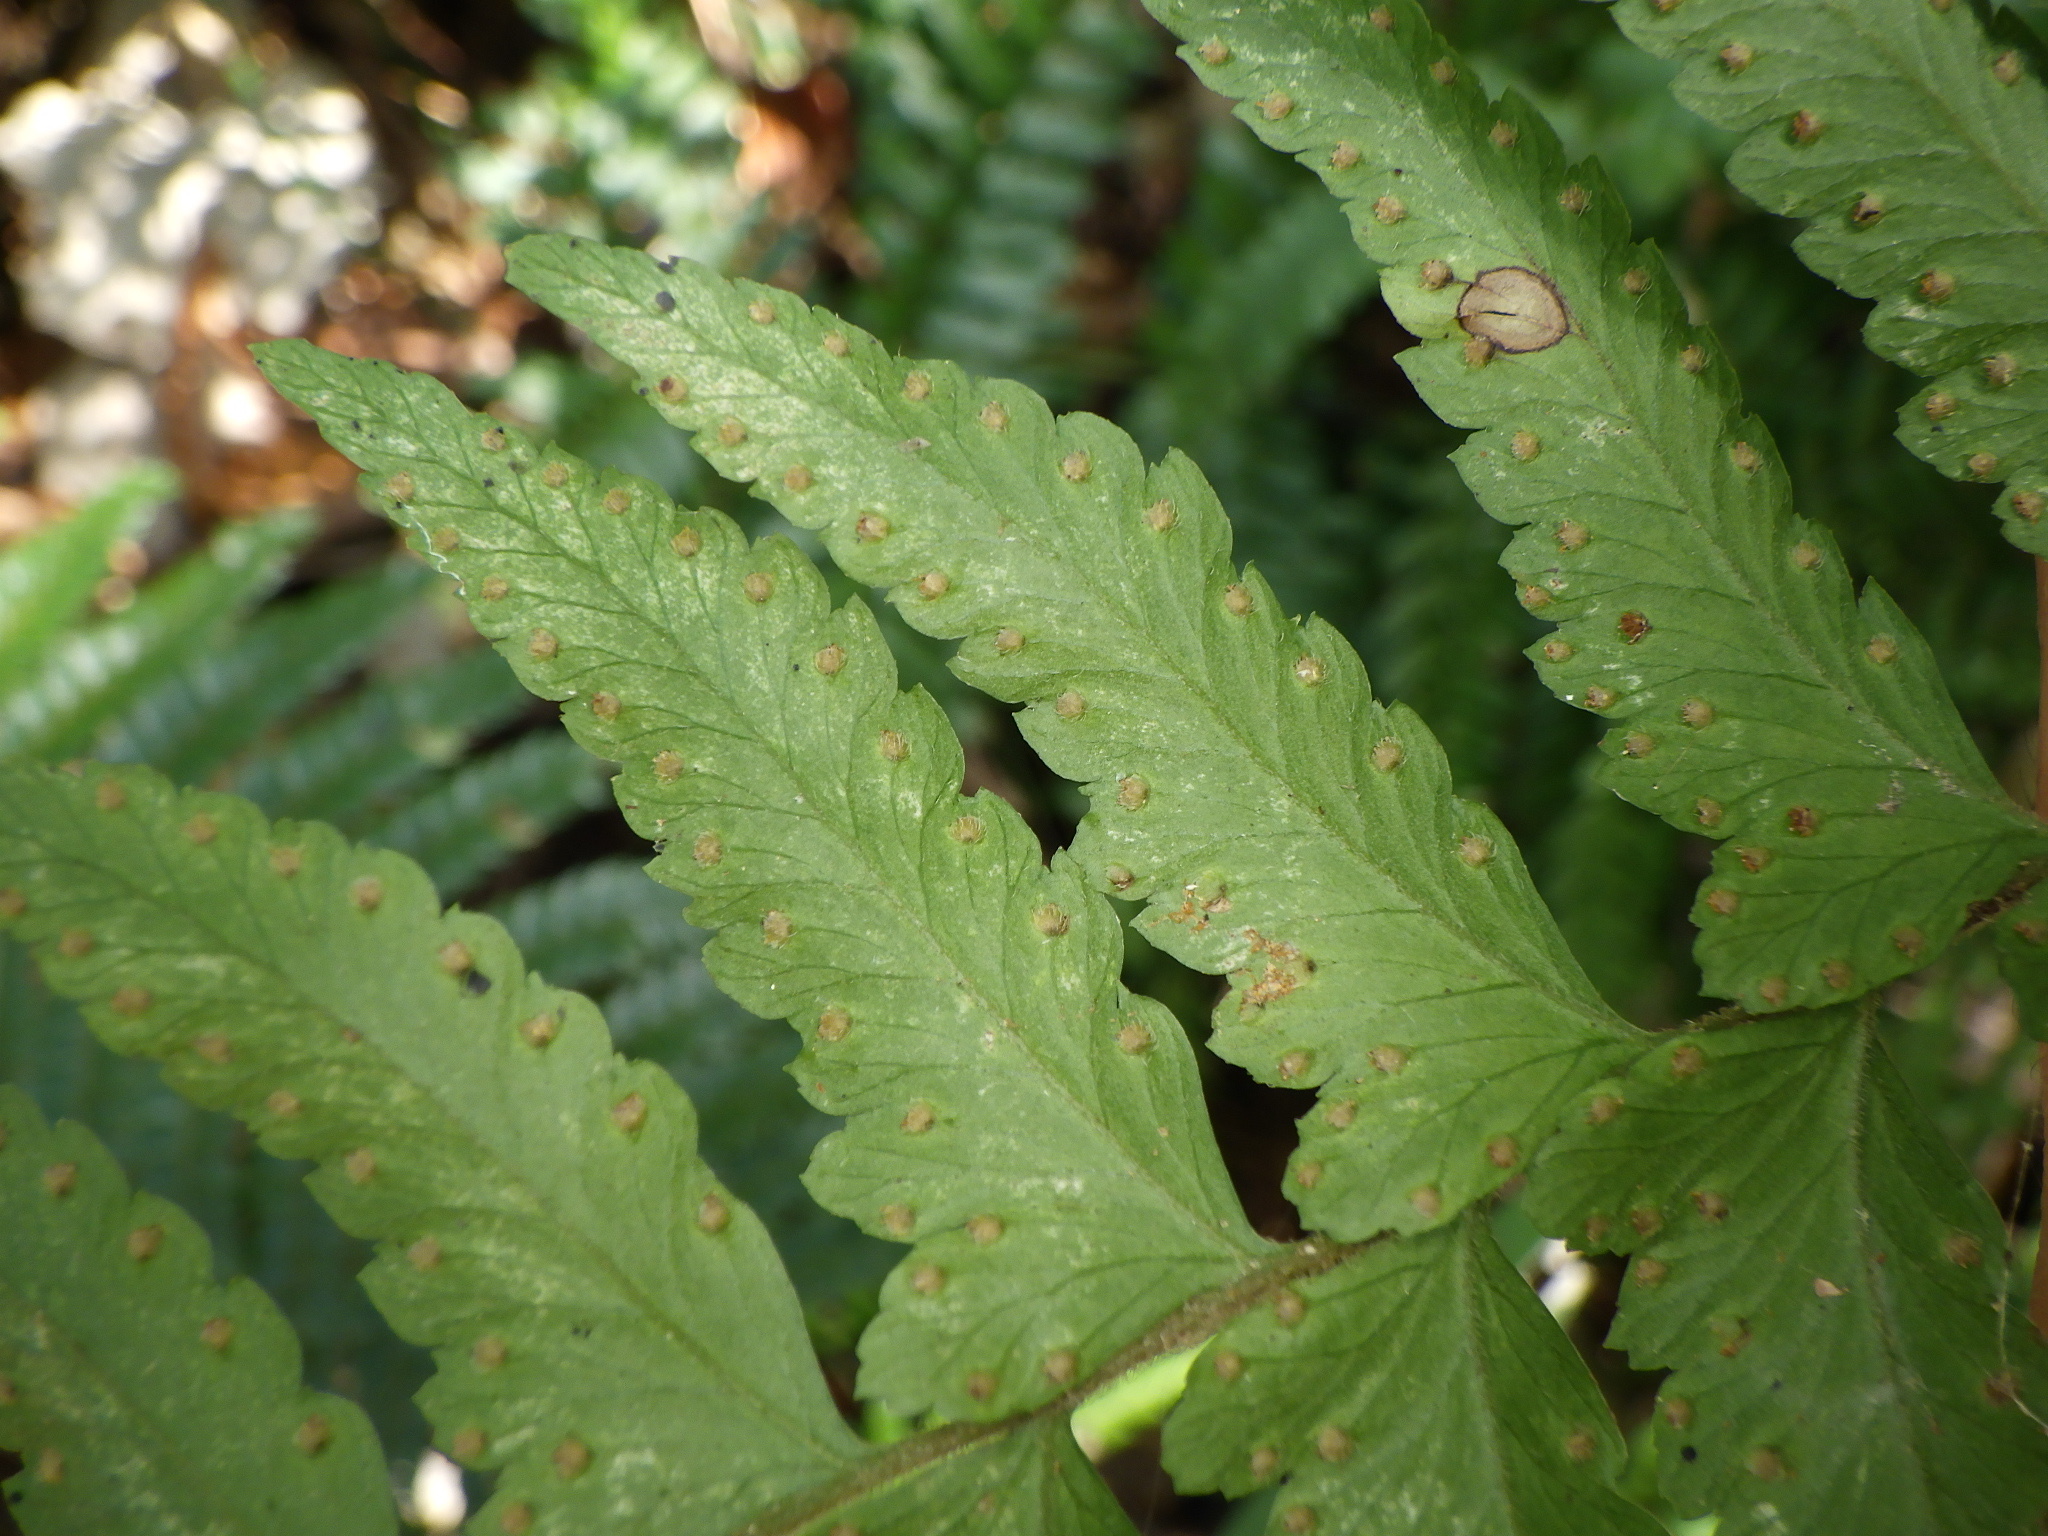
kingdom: Plantae
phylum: Tracheophyta
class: Polypodiopsida
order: Polypodiales
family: Dennstaedtiaceae
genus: Microlepia
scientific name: Microlepia marginata
